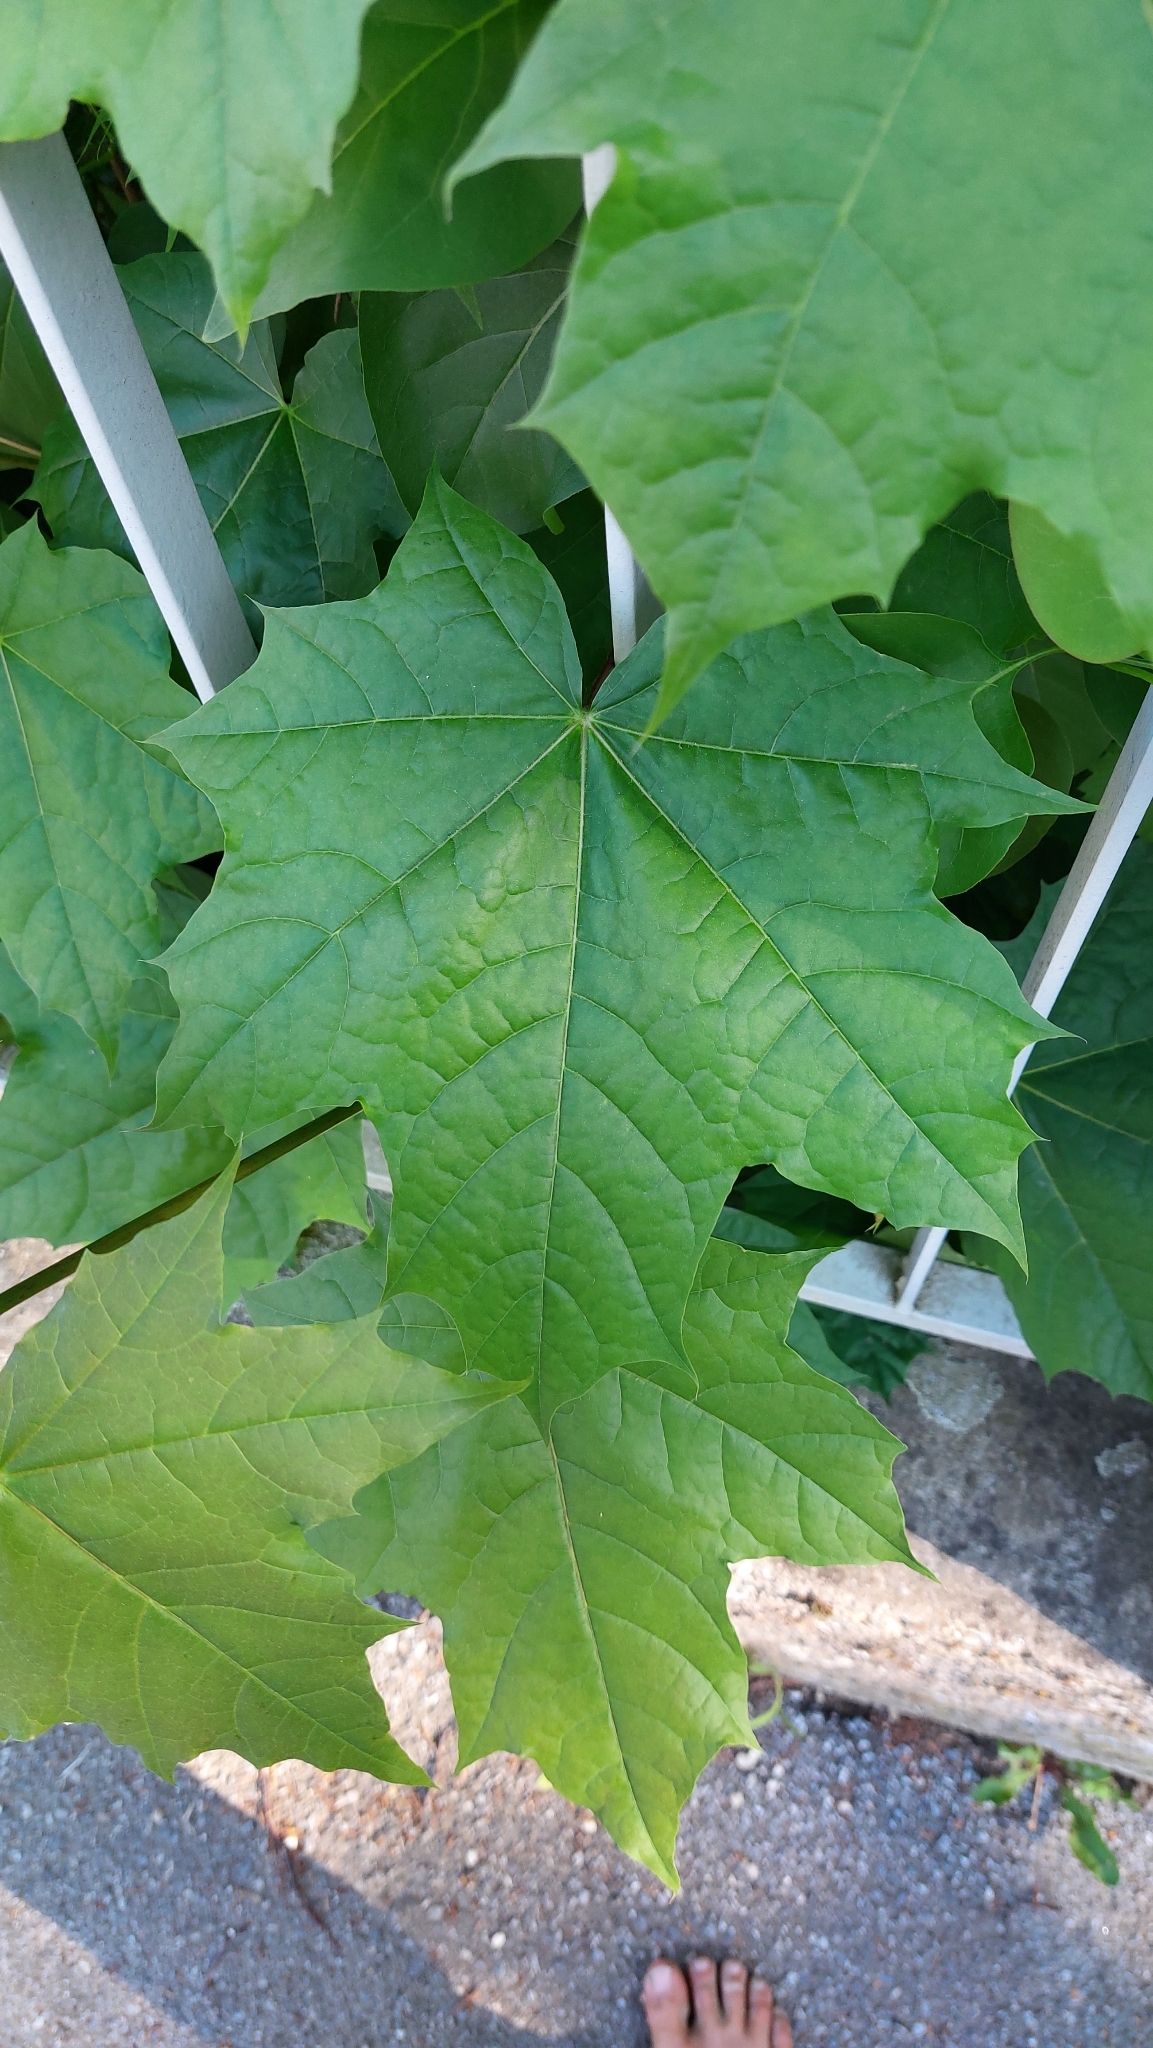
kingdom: Plantae
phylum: Tracheophyta
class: Magnoliopsida
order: Sapindales
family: Sapindaceae
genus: Acer
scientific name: Acer platanoides
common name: Norway maple
